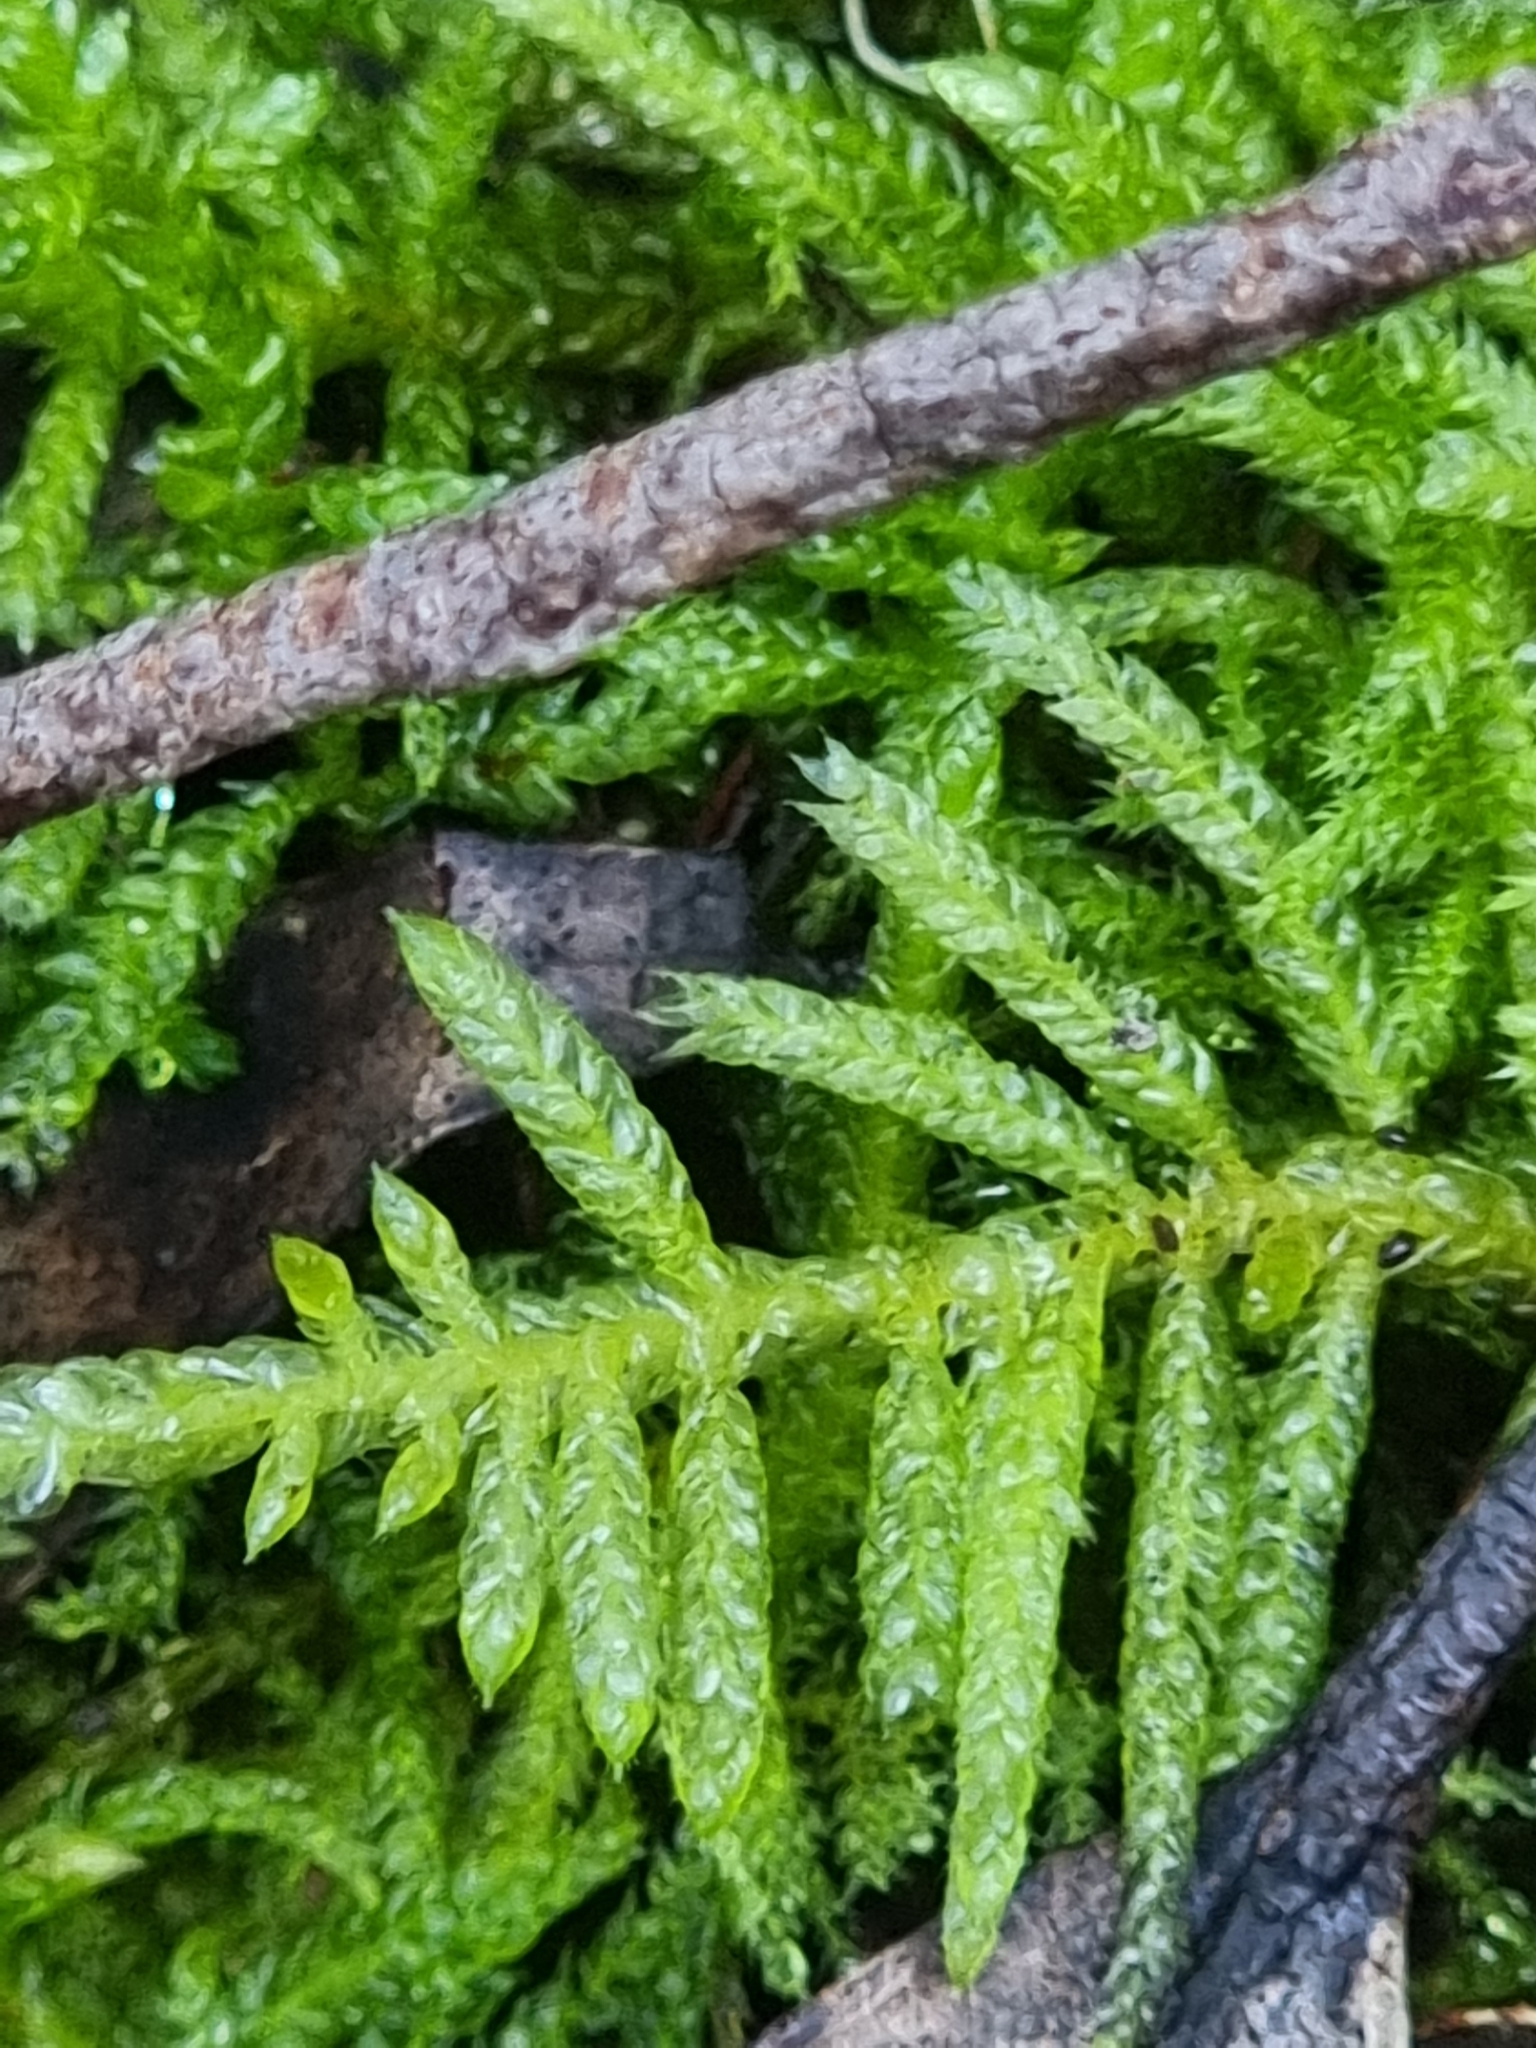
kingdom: Plantae
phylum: Bryophyta
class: Bryopsida
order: Hypnales
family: Brachytheciaceae
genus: Pseudoscleropodium
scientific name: Pseudoscleropodium purum
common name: Neat feather-moss
